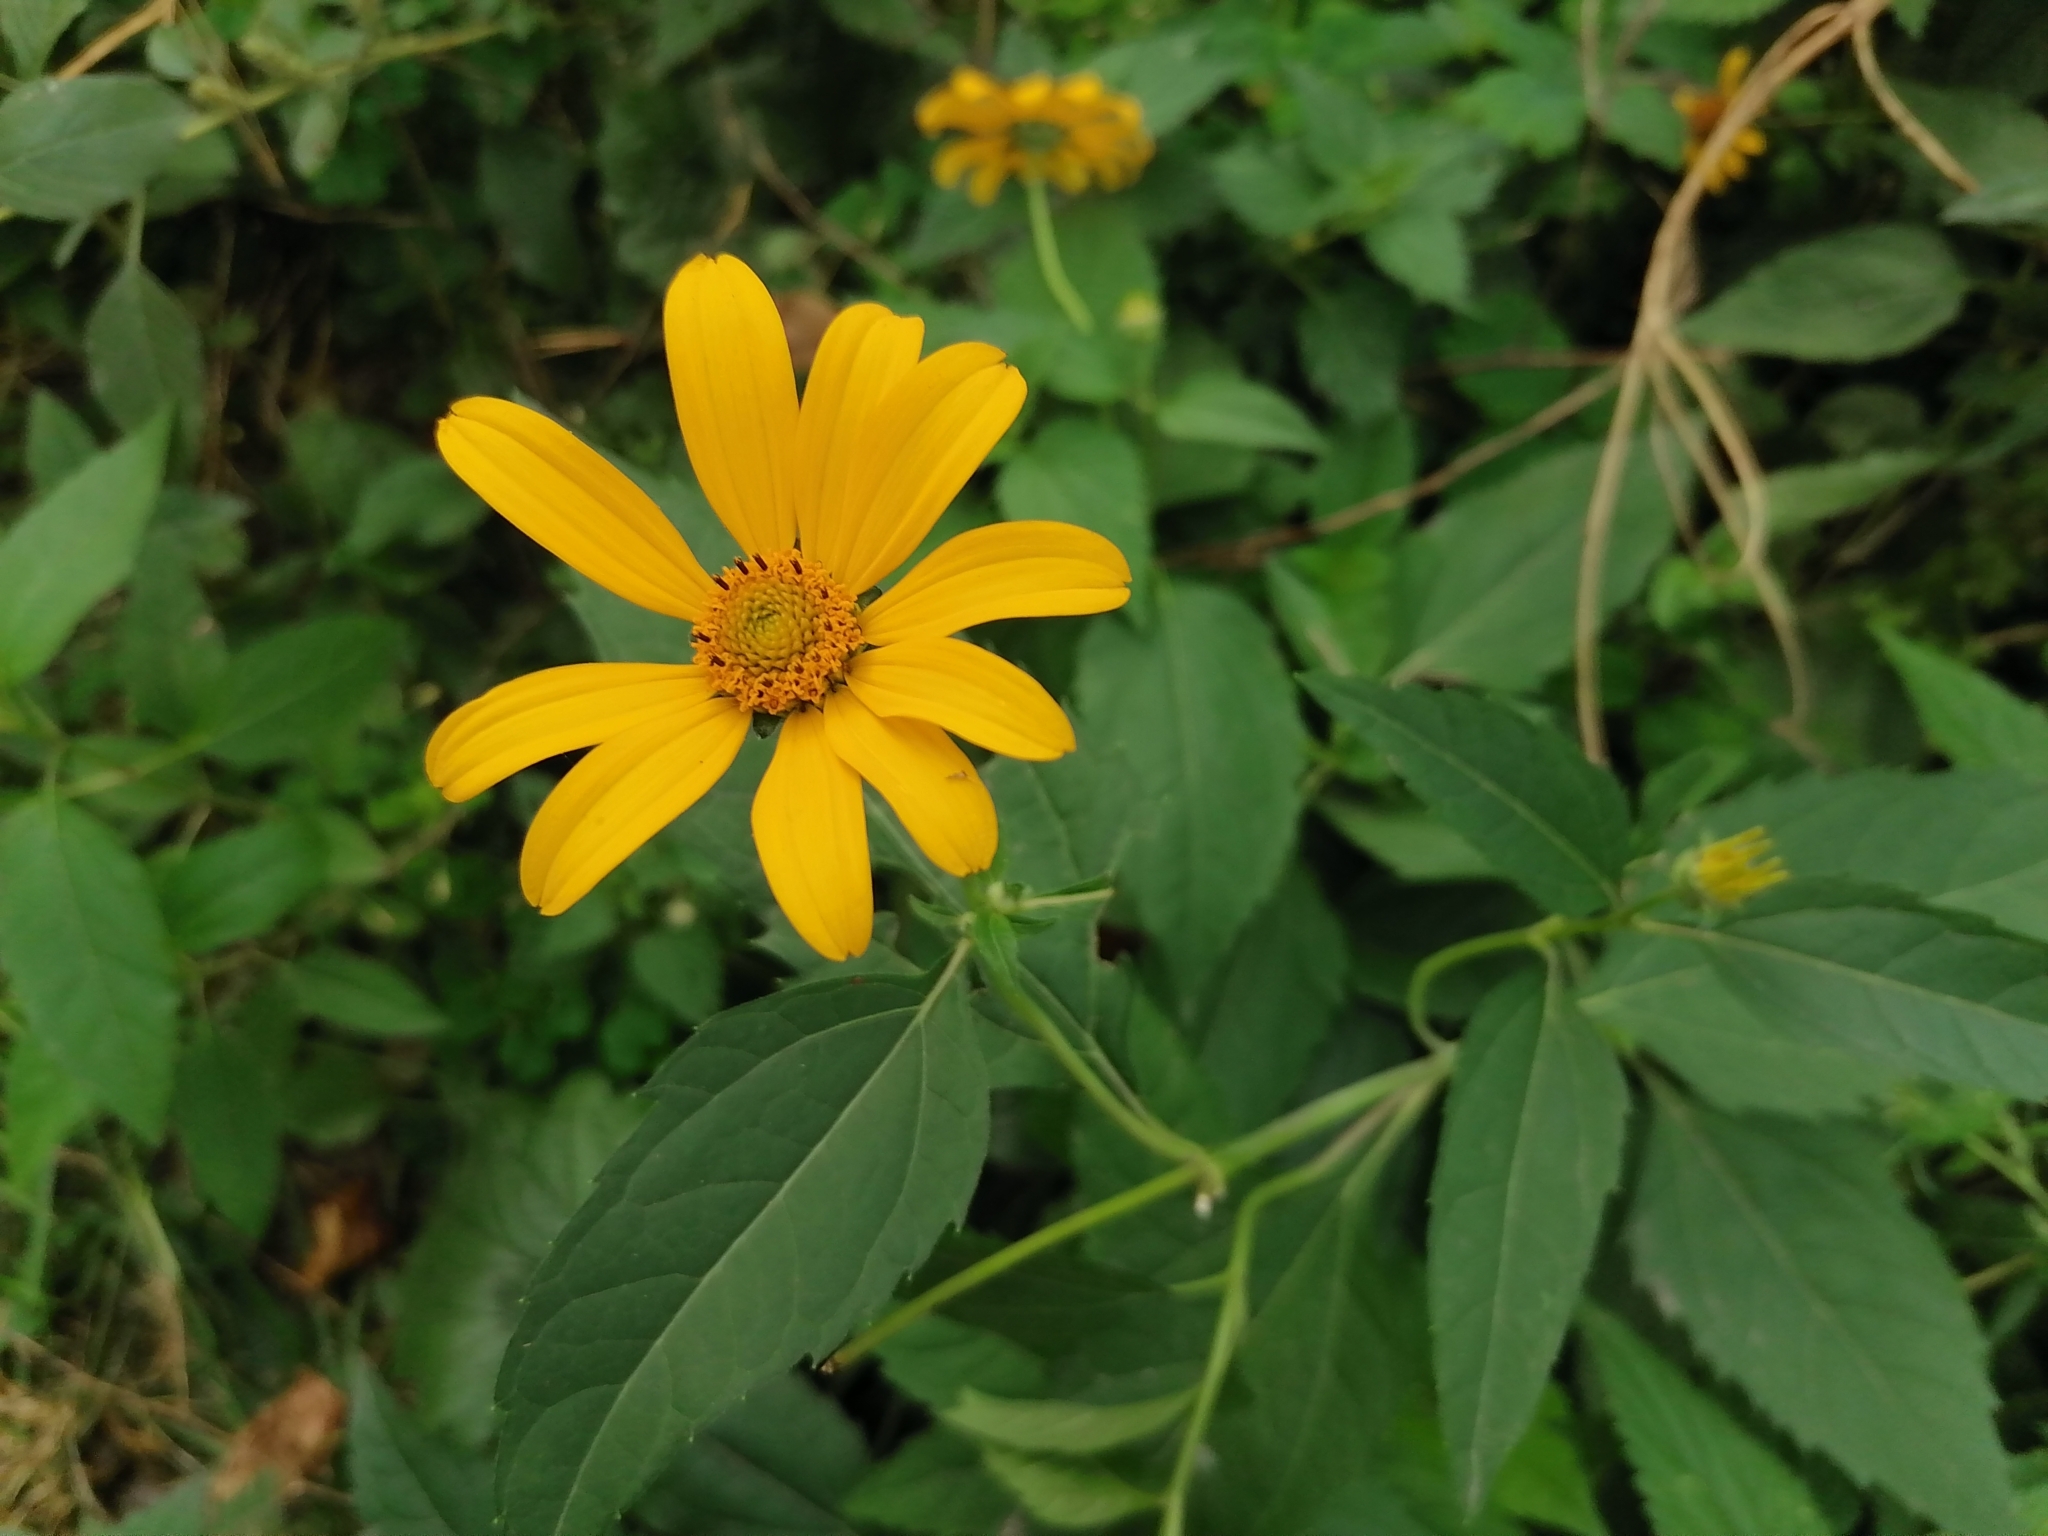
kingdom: Plantae
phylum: Tracheophyta
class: Magnoliopsida
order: Asterales
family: Asteraceae
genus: Heliopsis
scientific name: Heliopsis helianthoides
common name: False sunflower
